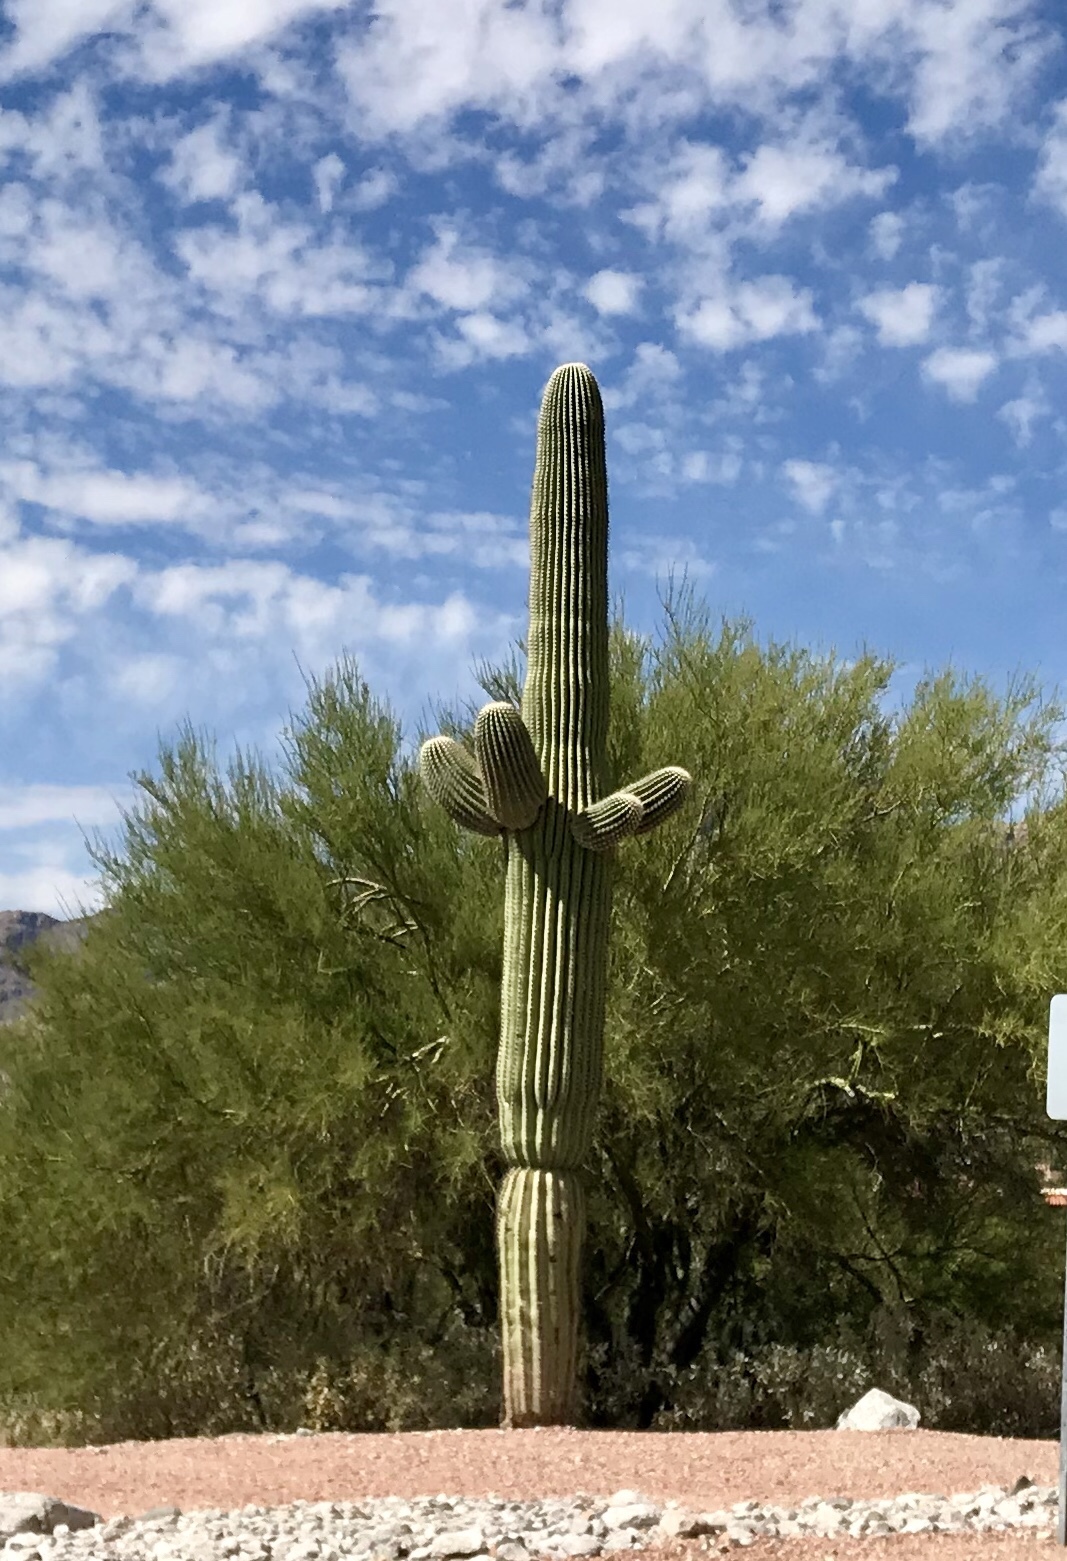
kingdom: Plantae
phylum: Tracheophyta
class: Magnoliopsida
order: Caryophyllales
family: Cactaceae
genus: Carnegiea
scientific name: Carnegiea gigantea
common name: Saguaro
